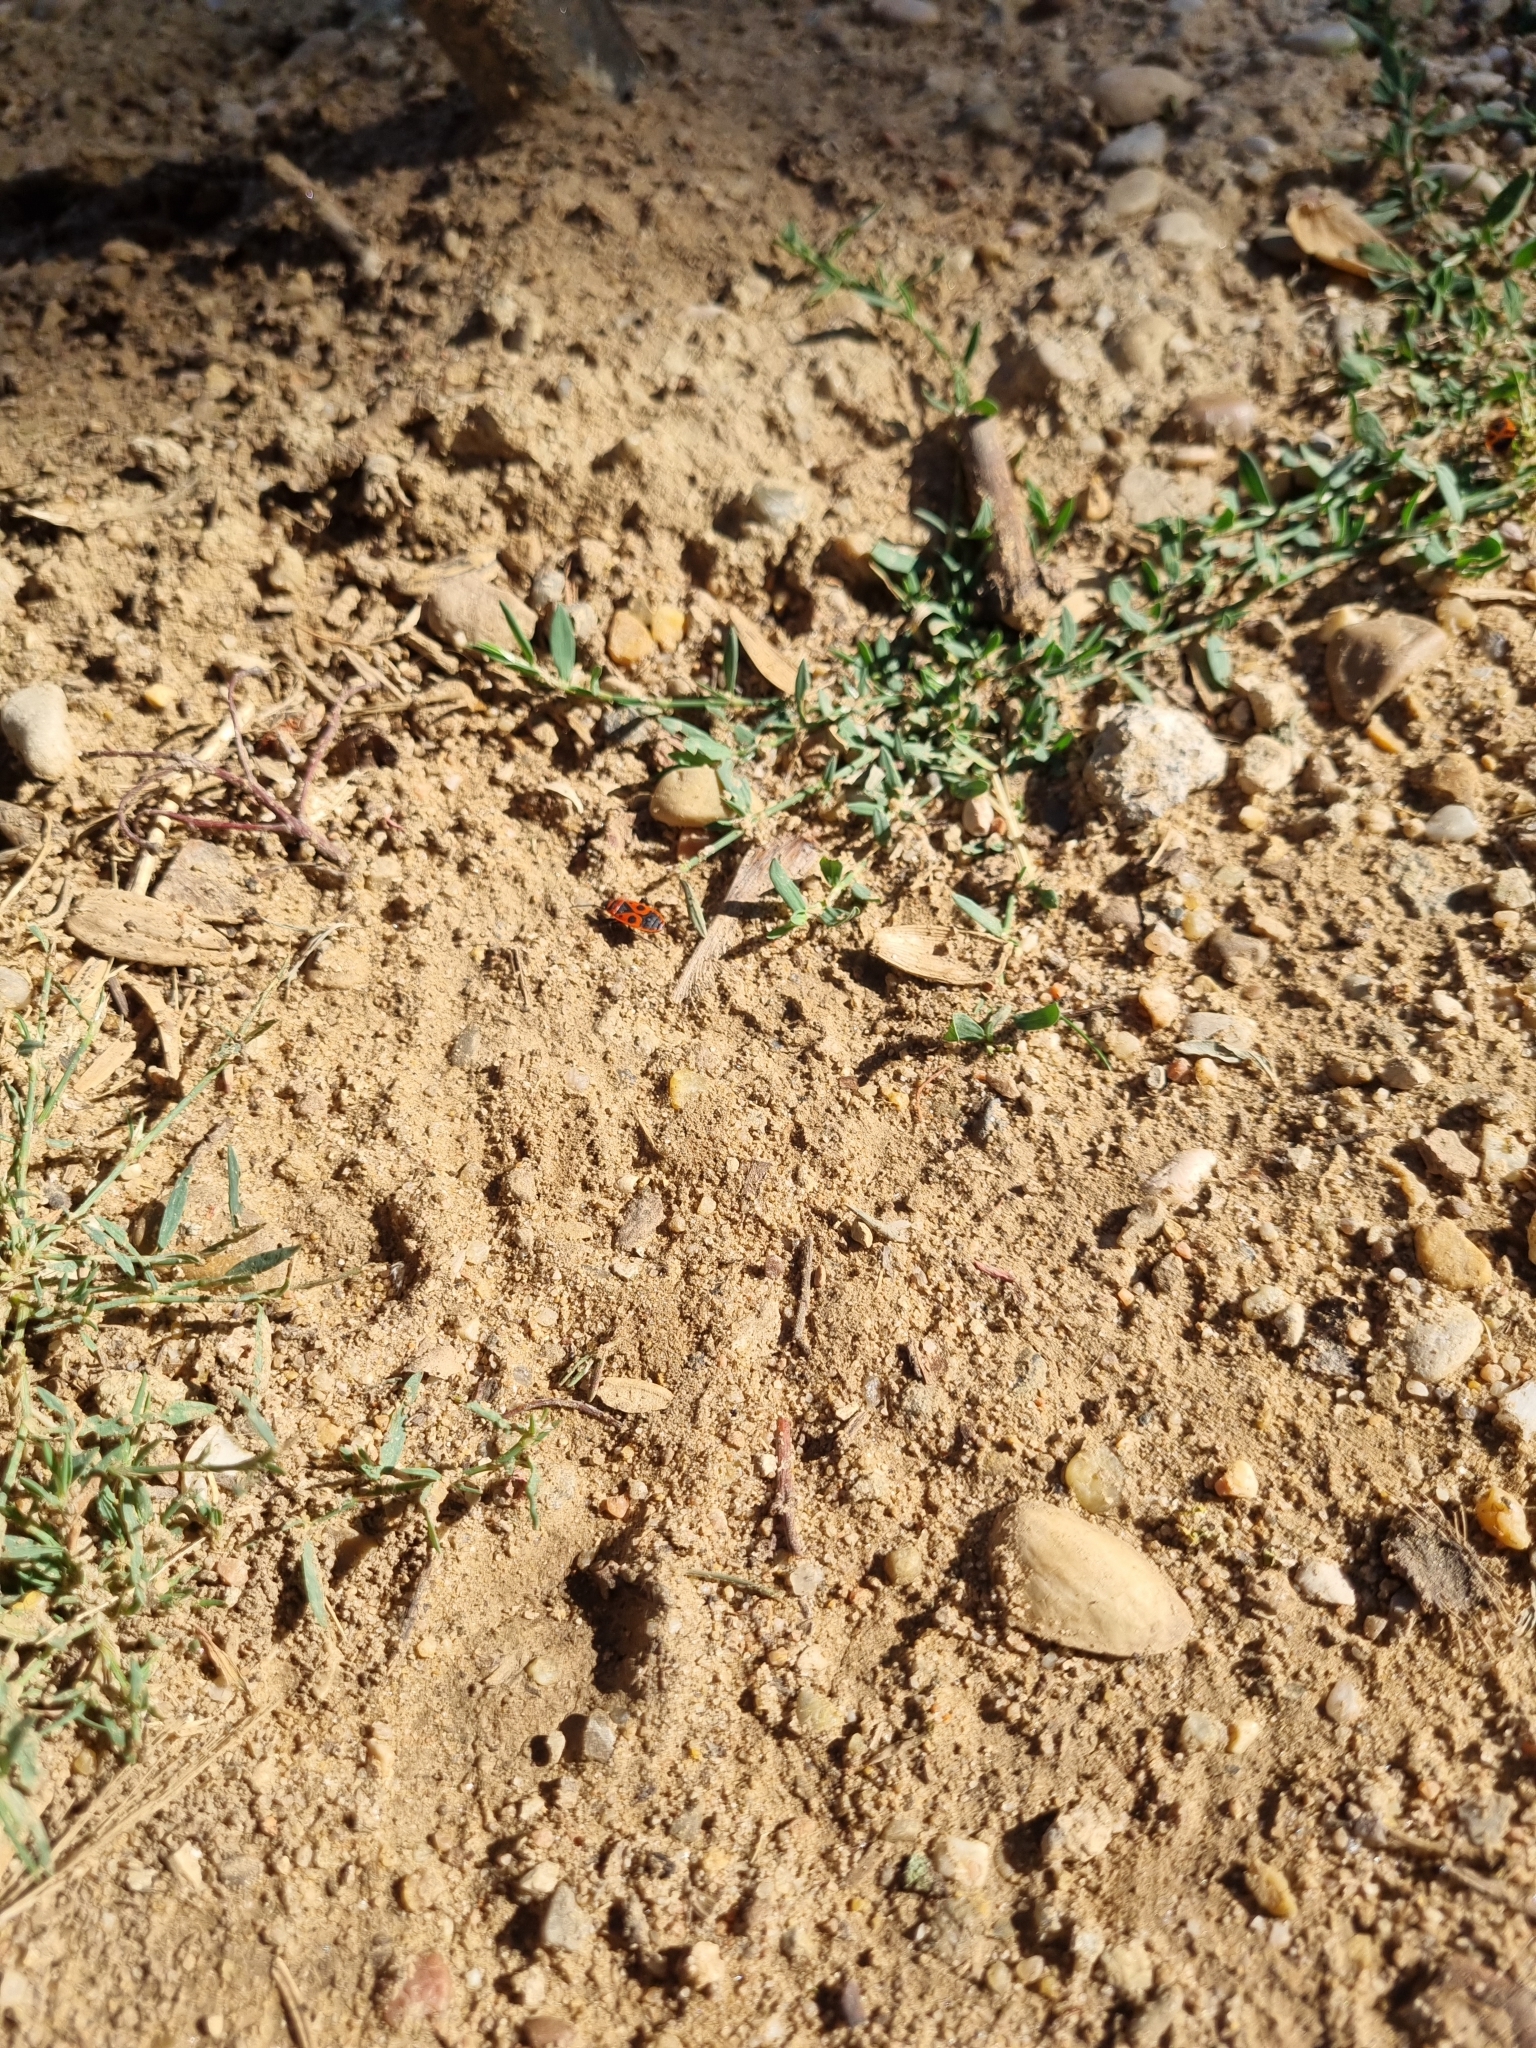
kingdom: Animalia
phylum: Arthropoda
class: Insecta
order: Hemiptera
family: Pyrrhocoridae
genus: Pyrrhocoris
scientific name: Pyrrhocoris apterus
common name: Firebug
